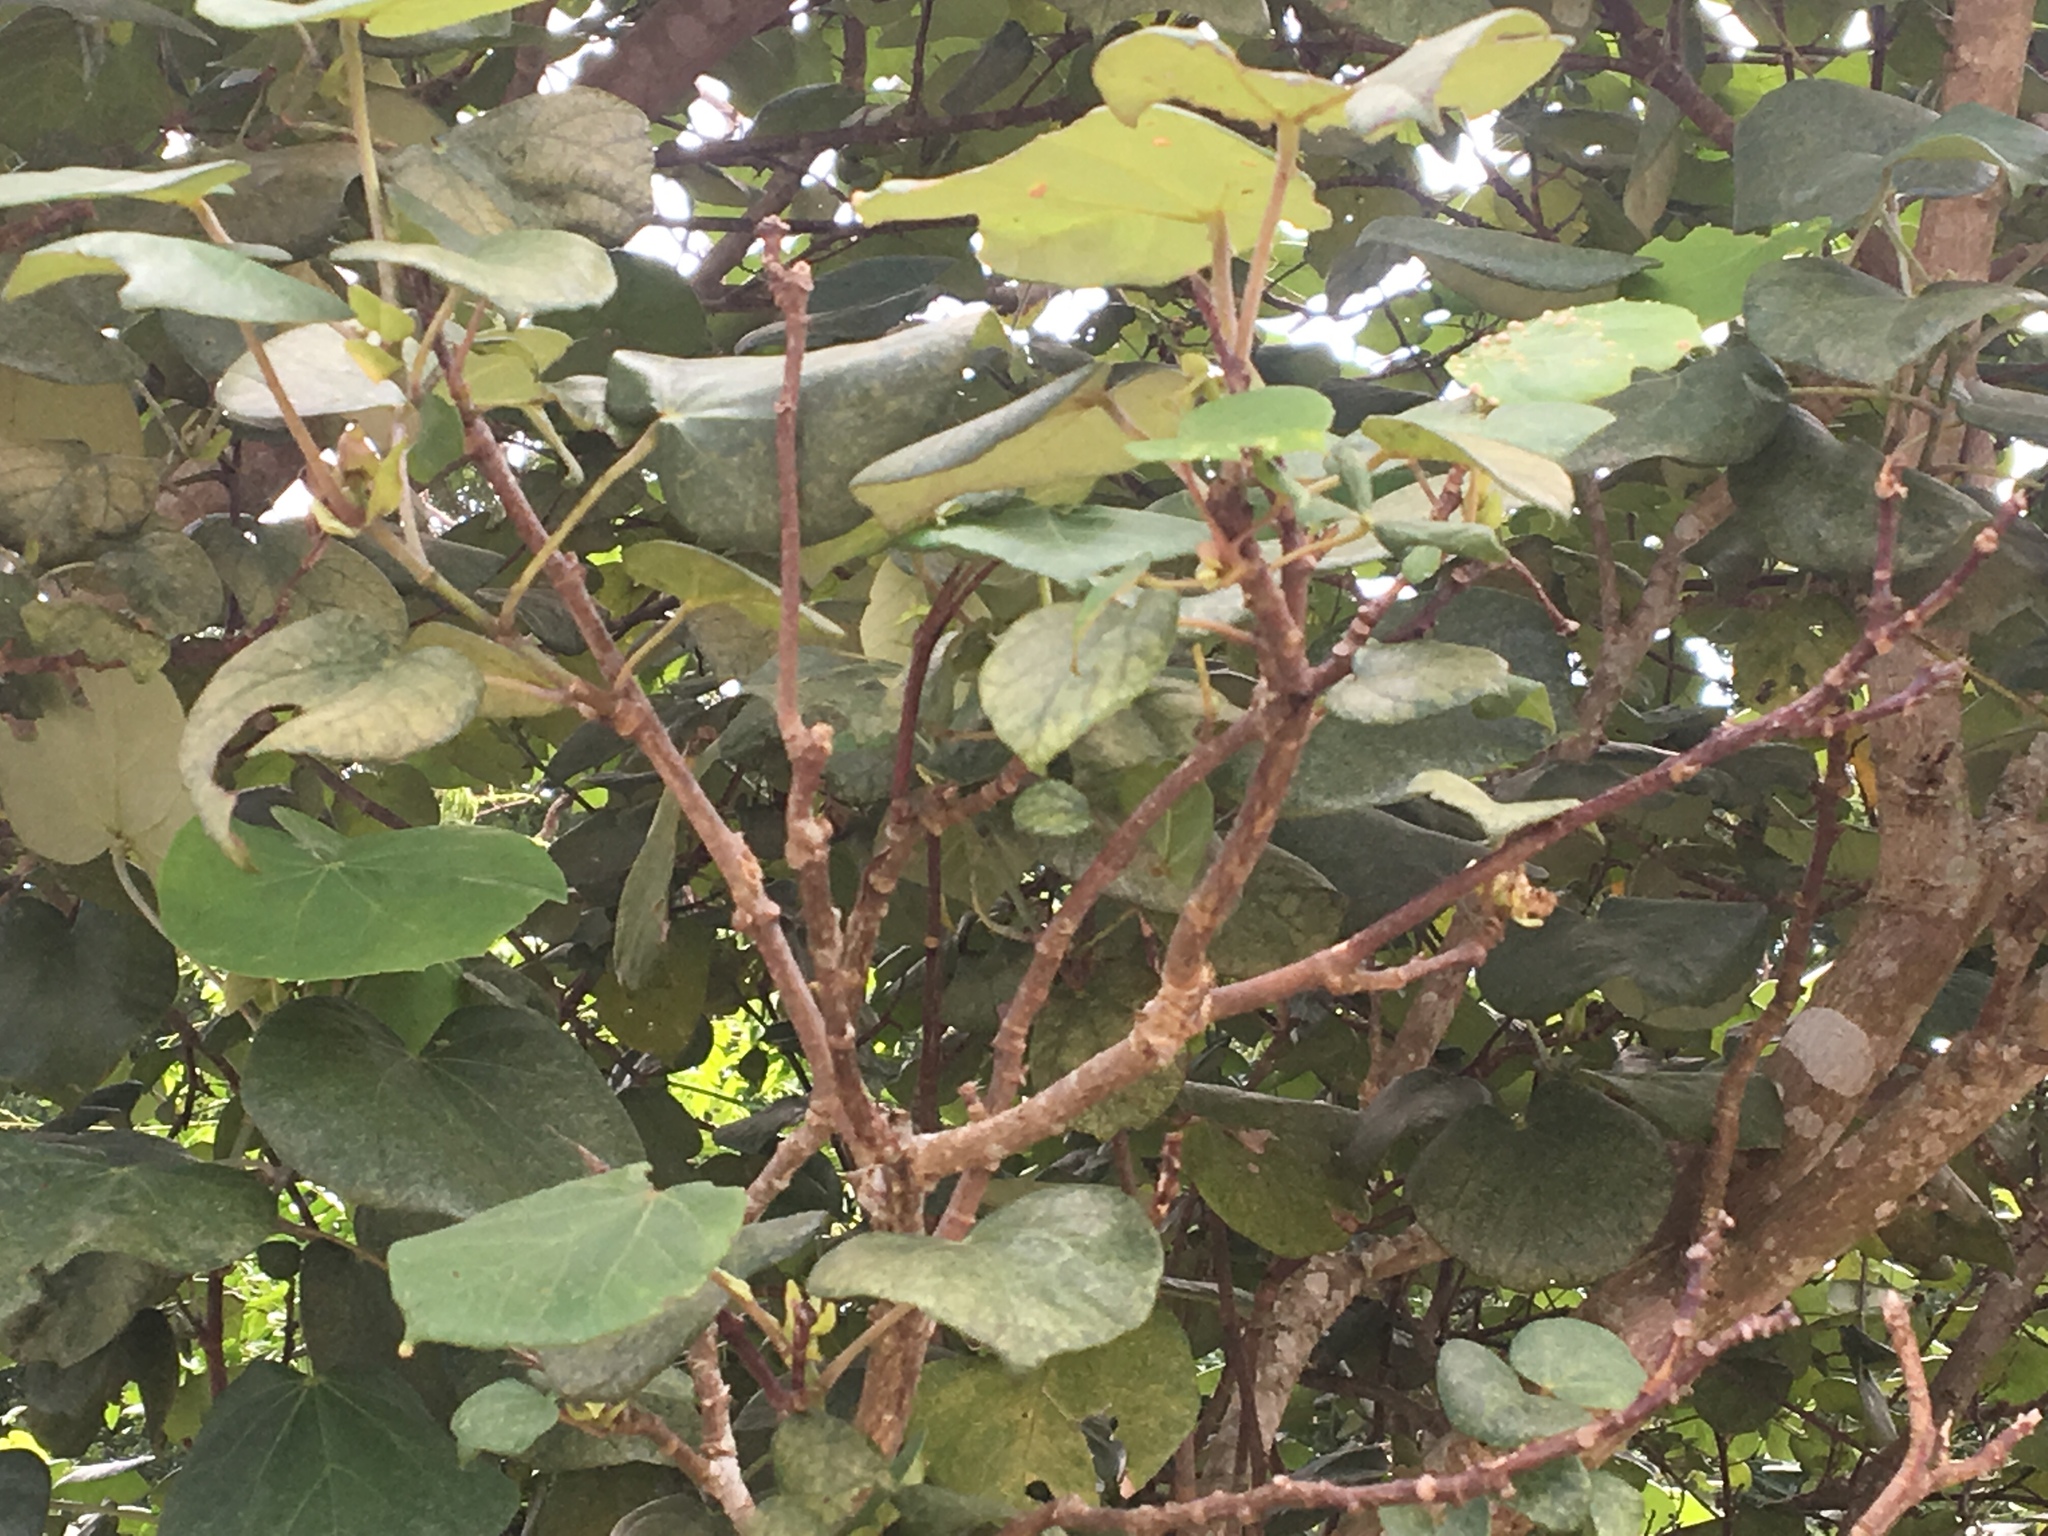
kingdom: Plantae
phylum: Tracheophyta
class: Magnoliopsida
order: Malvales
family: Malvaceae
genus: Talipariti
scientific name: Talipariti tiliaceum
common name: Sea hibiscus
